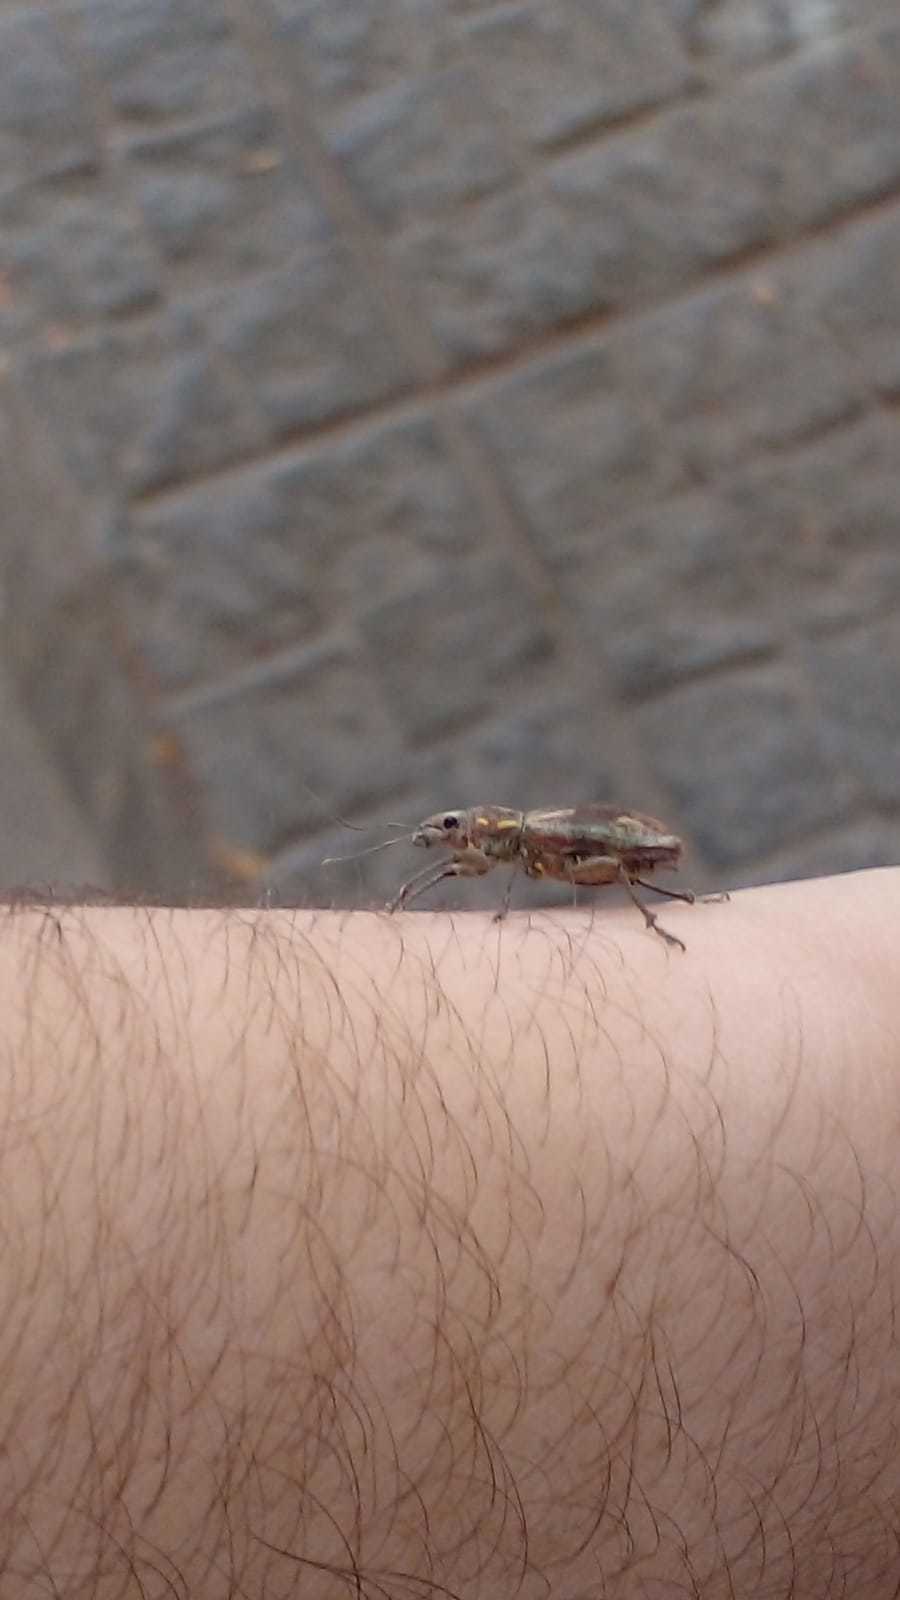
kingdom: Animalia
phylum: Arthropoda
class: Insecta
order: Coleoptera
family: Curculionidae
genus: Naupactus
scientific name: Naupactus xanthographus
